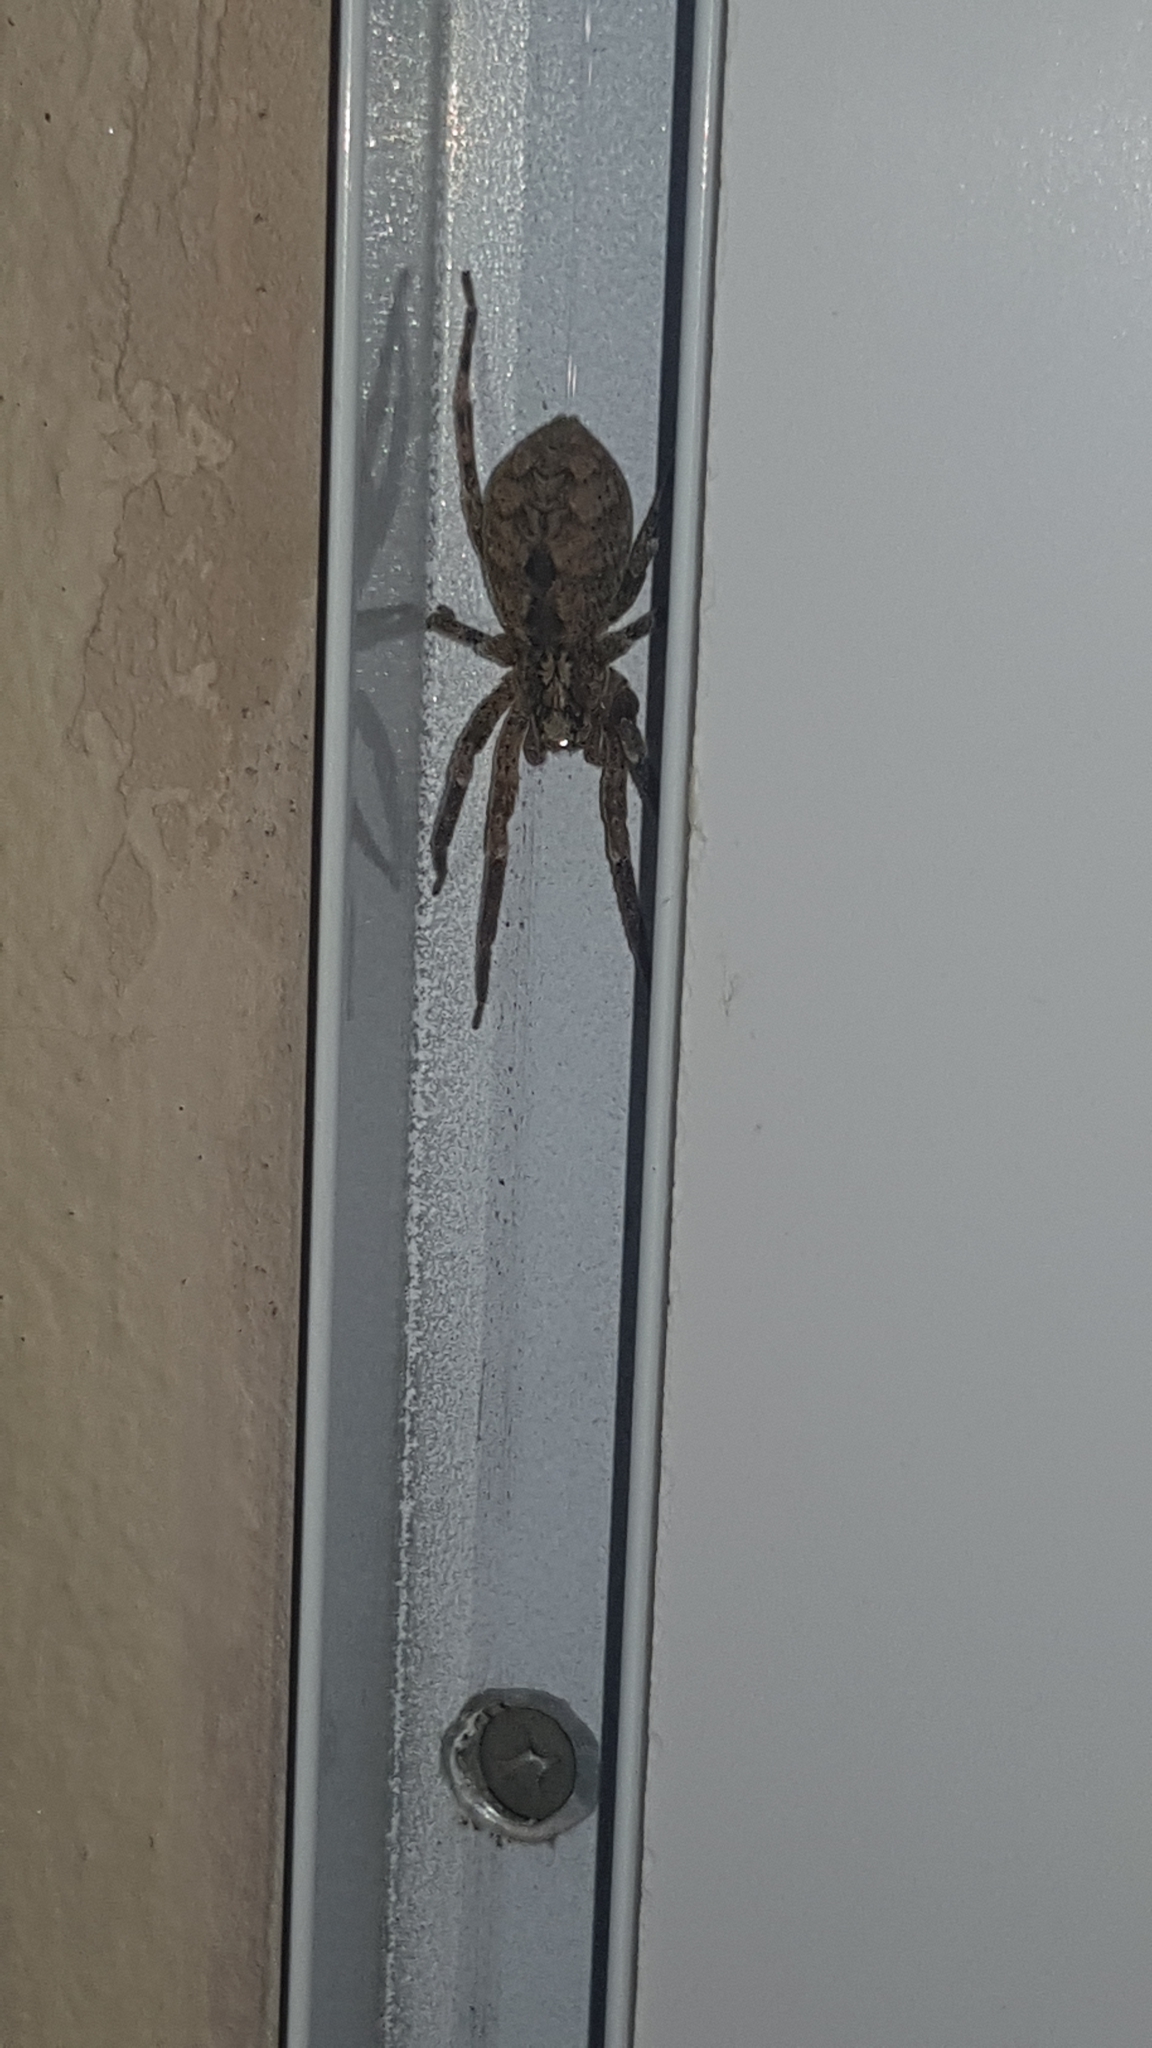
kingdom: Animalia
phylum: Arthropoda
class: Arachnida
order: Araneae
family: Zoropsidae
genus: Zoropsis
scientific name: Zoropsis spinimana
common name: Zoropsid spider
